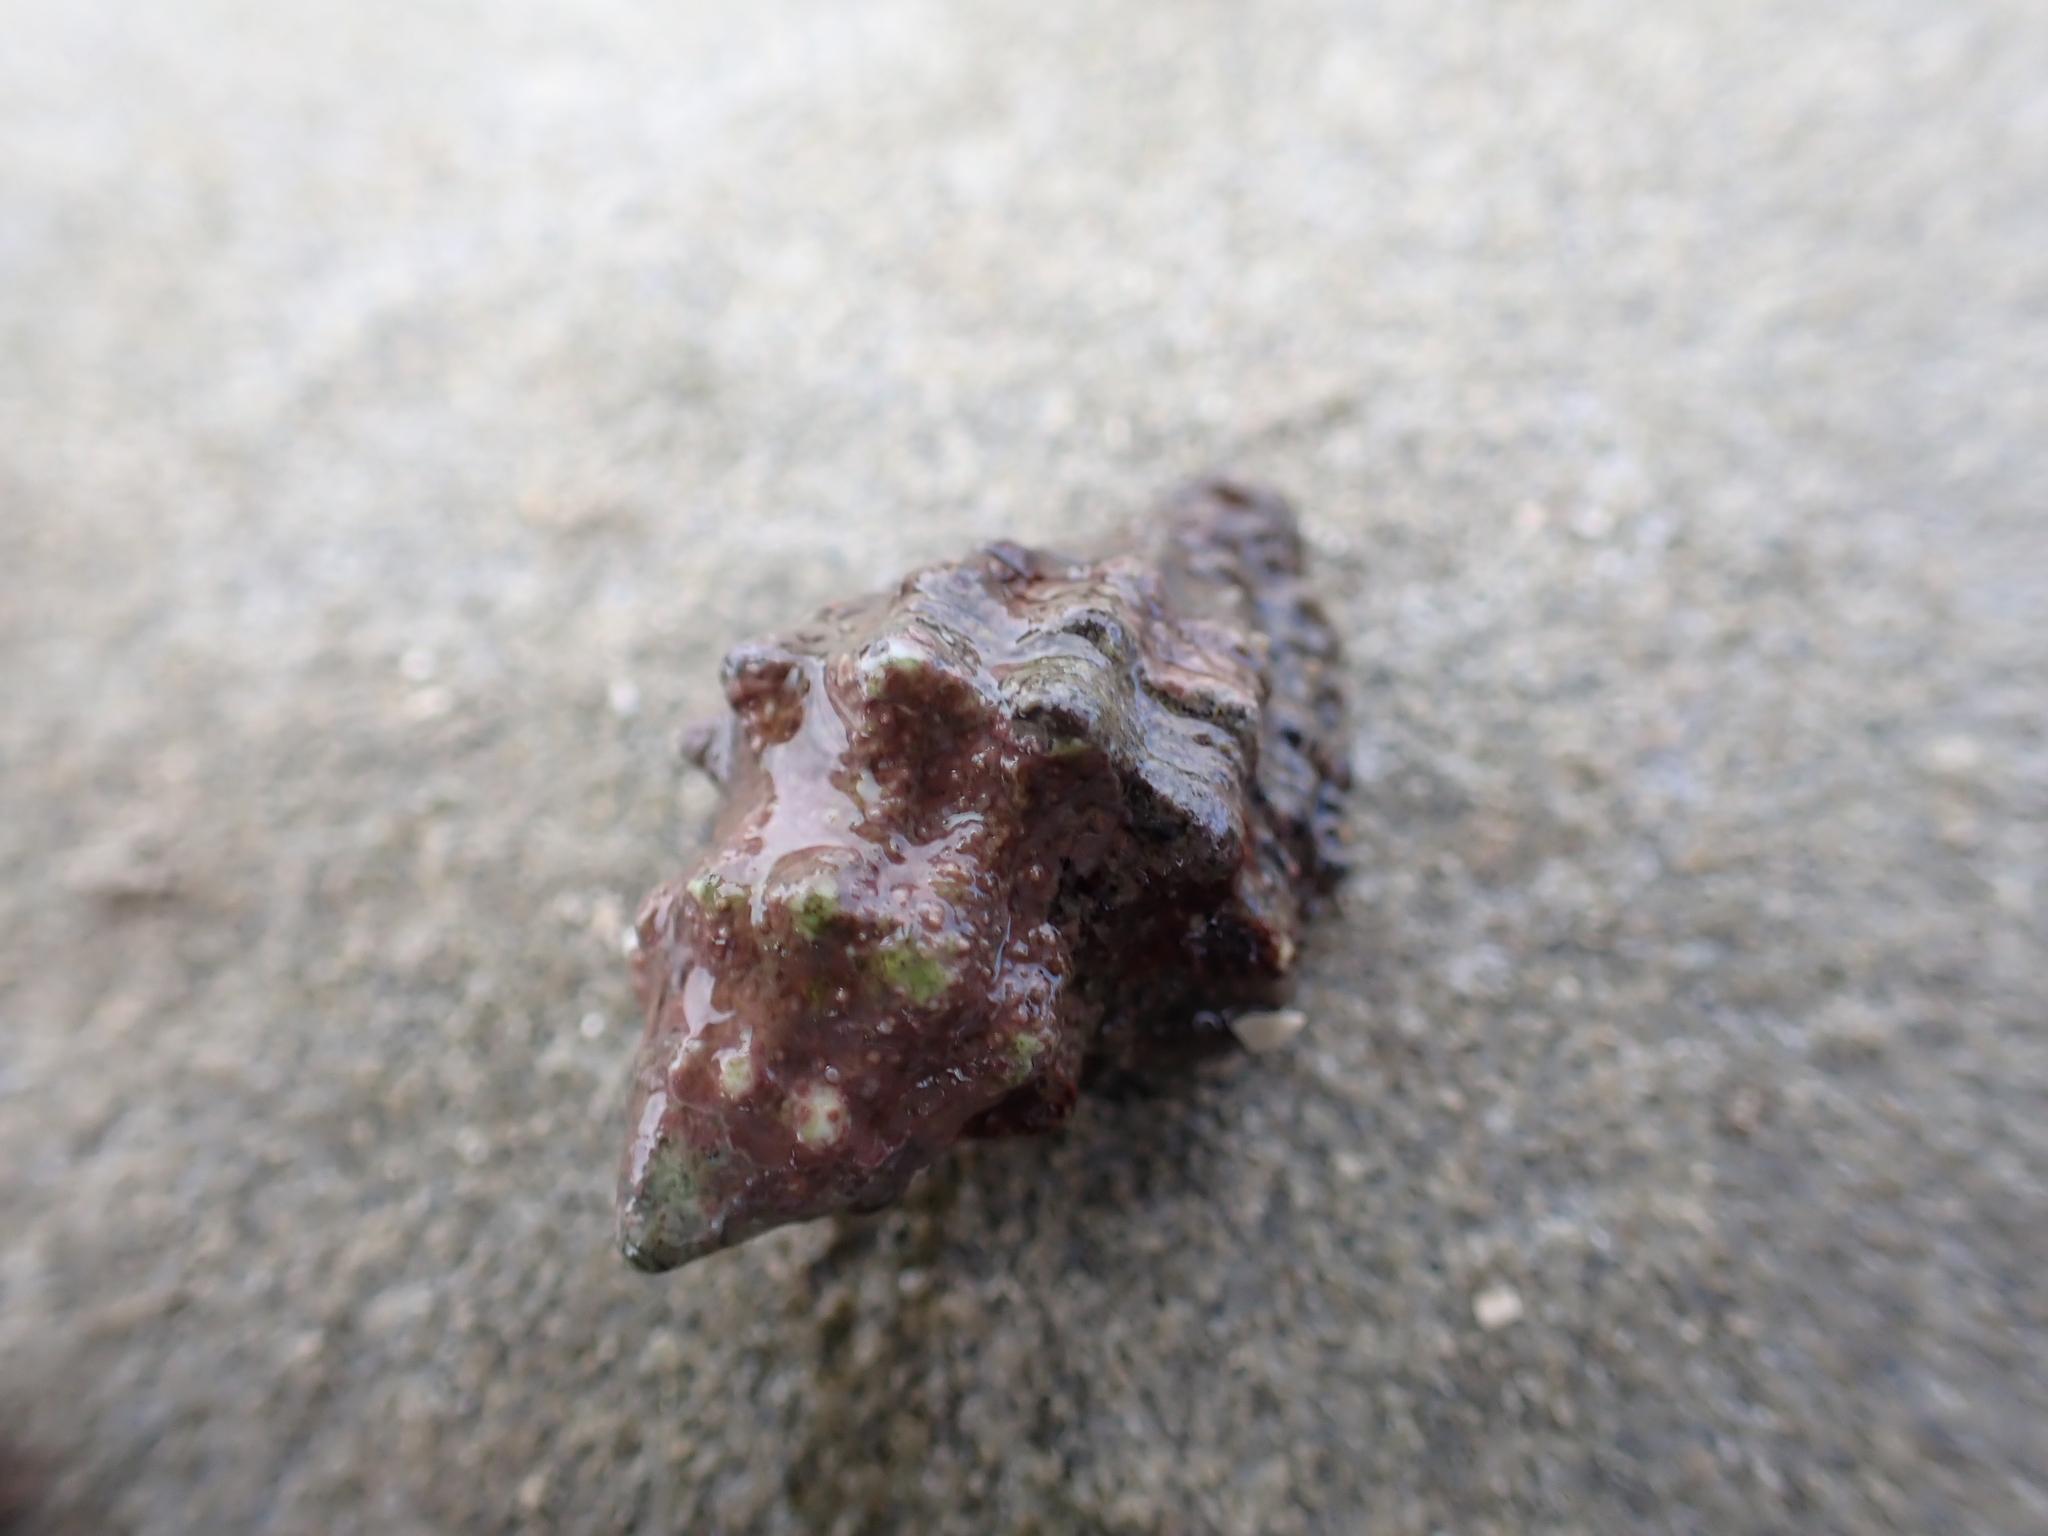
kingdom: Animalia
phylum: Mollusca
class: Gastropoda
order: Neogastropoda
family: Muricidae
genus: Drupella
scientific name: Drupella margariticola
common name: Shouldered castor bean
